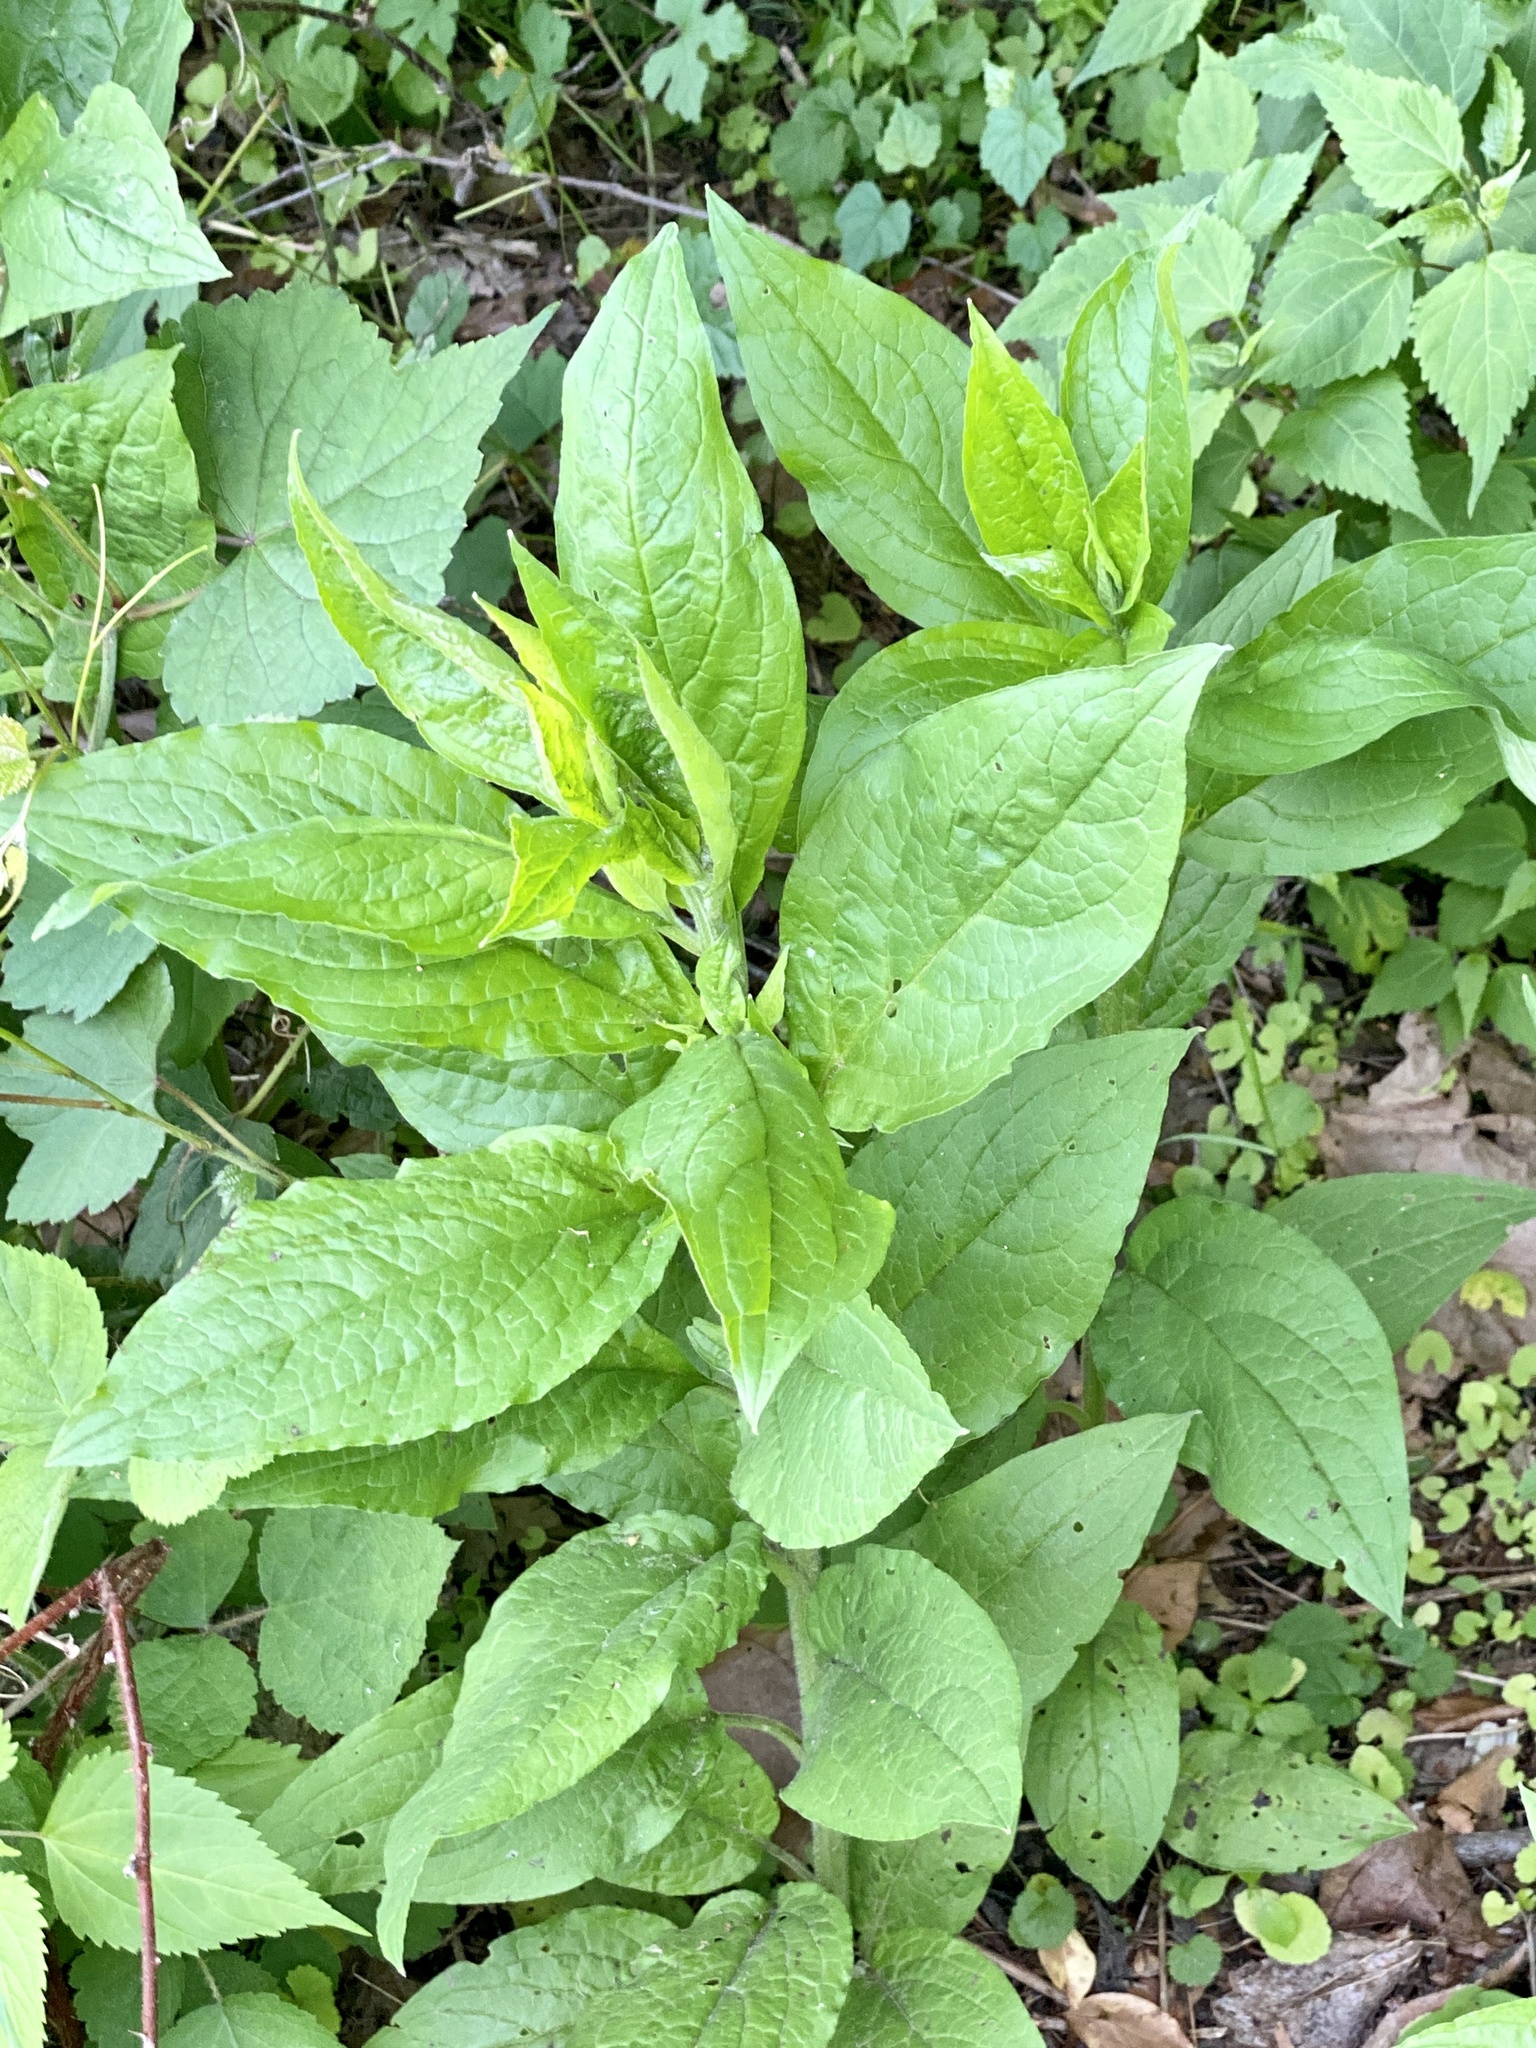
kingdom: Plantae
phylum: Tracheophyta
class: Magnoliopsida
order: Boraginales
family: Boraginaceae
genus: Hackelia
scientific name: Hackelia virginiana
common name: Beggar's-lice
